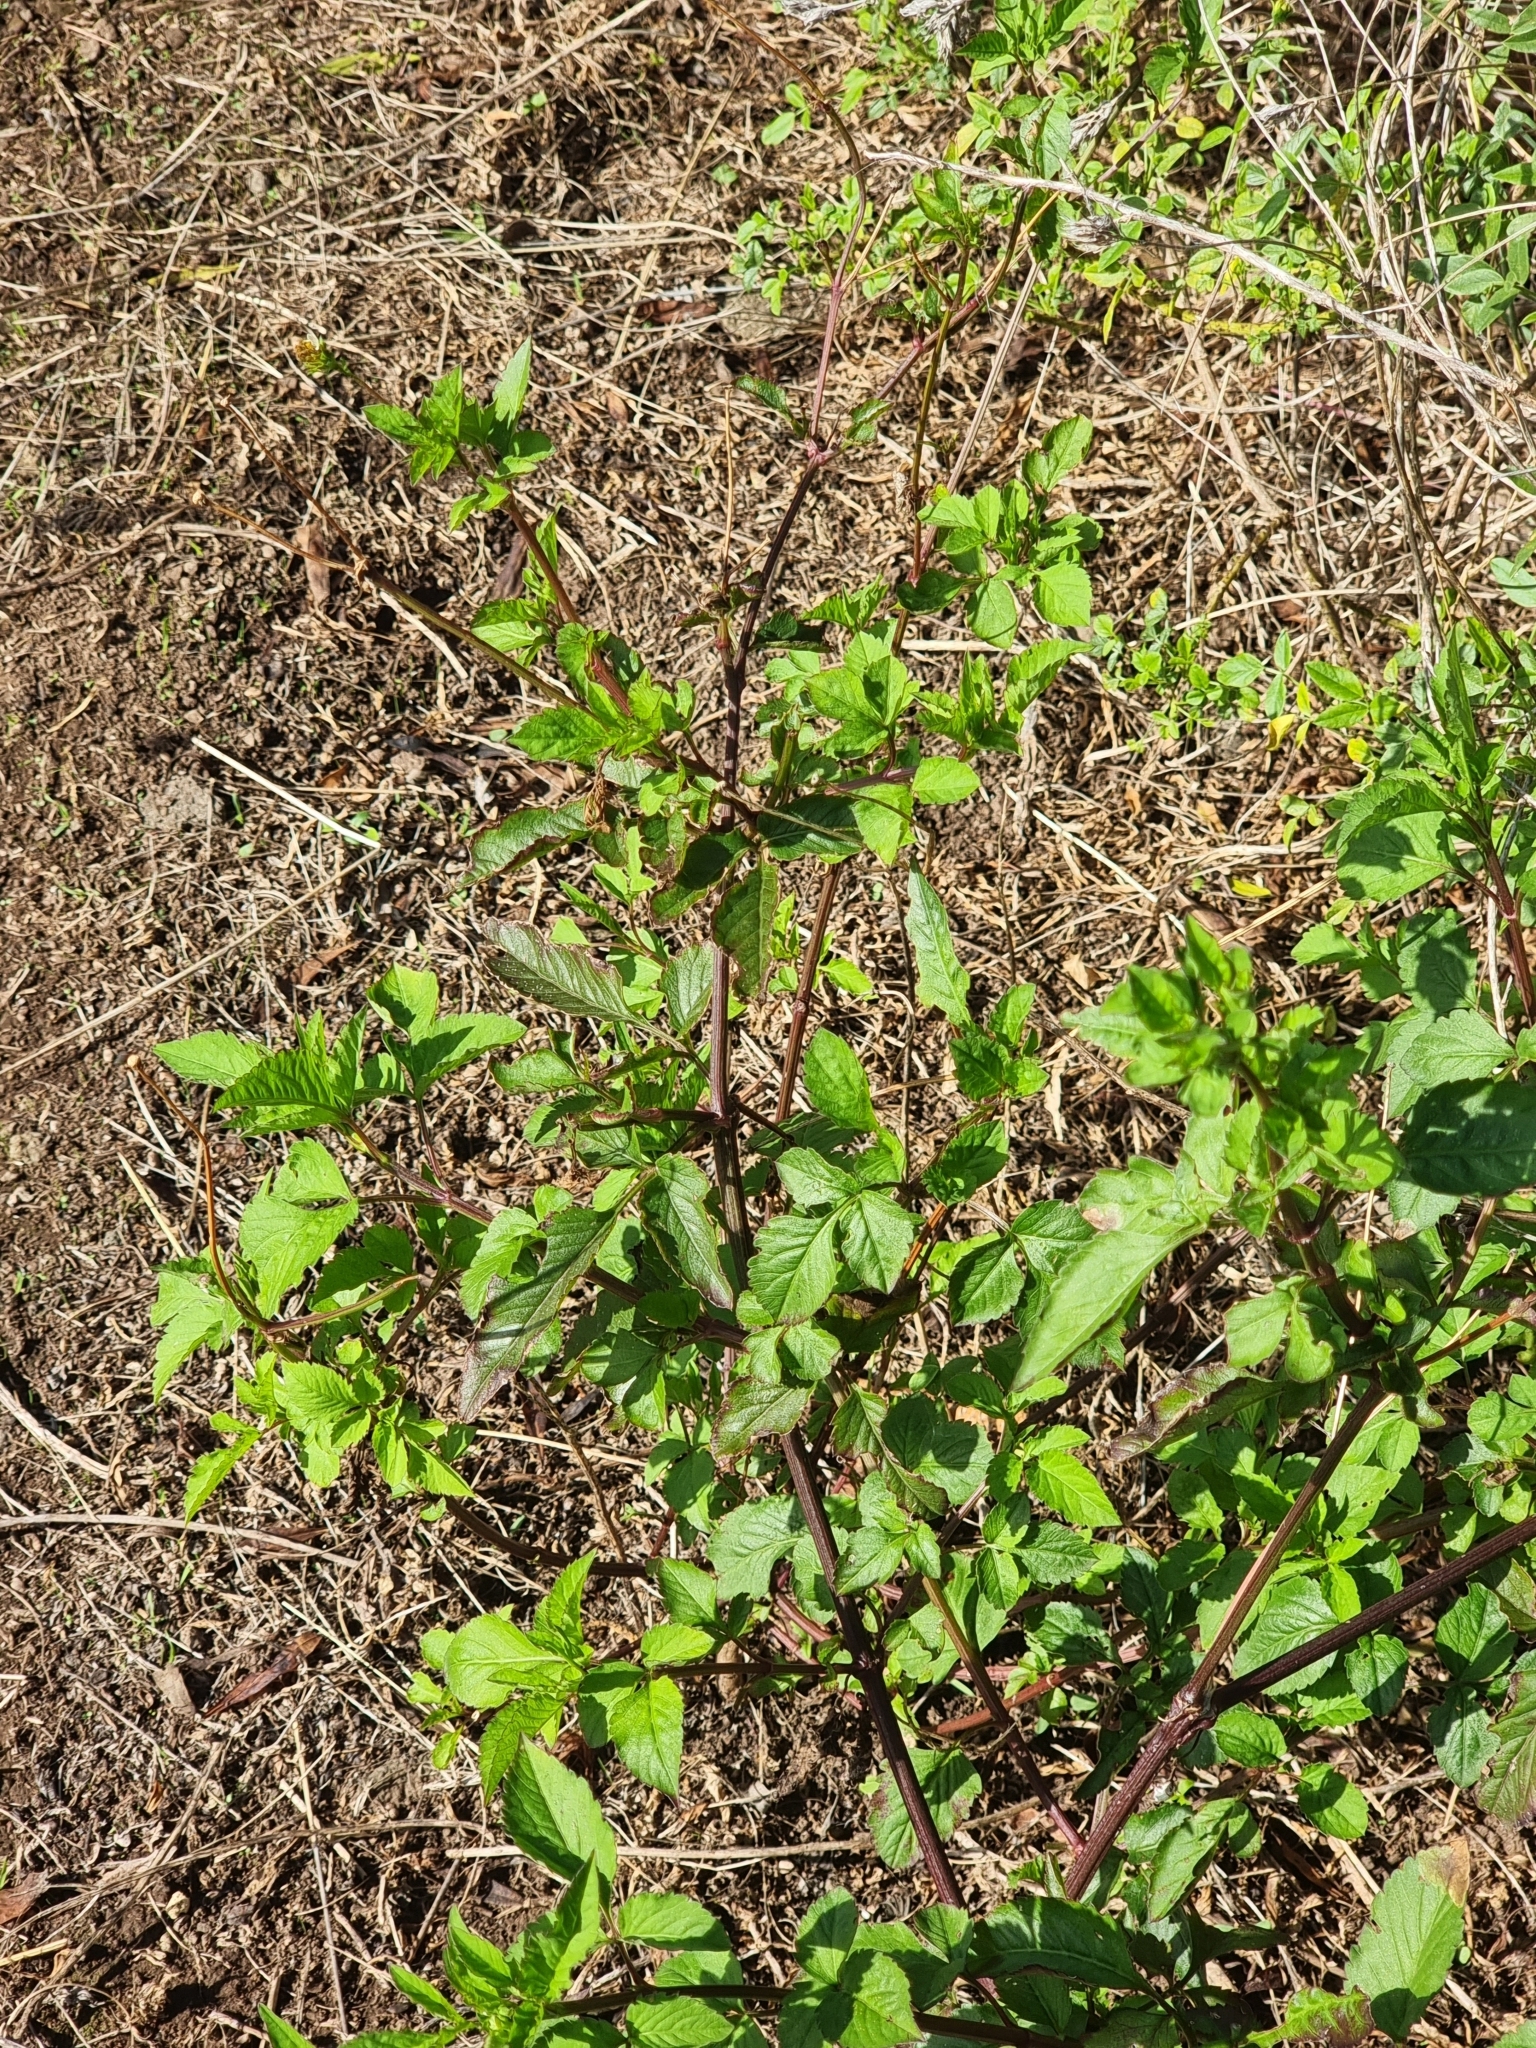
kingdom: Plantae
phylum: Tracheophyta
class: Magnoliopsida
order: Asterales
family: Asteraceae
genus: Bidens
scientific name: Bidens pilosa
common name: Black-jack
